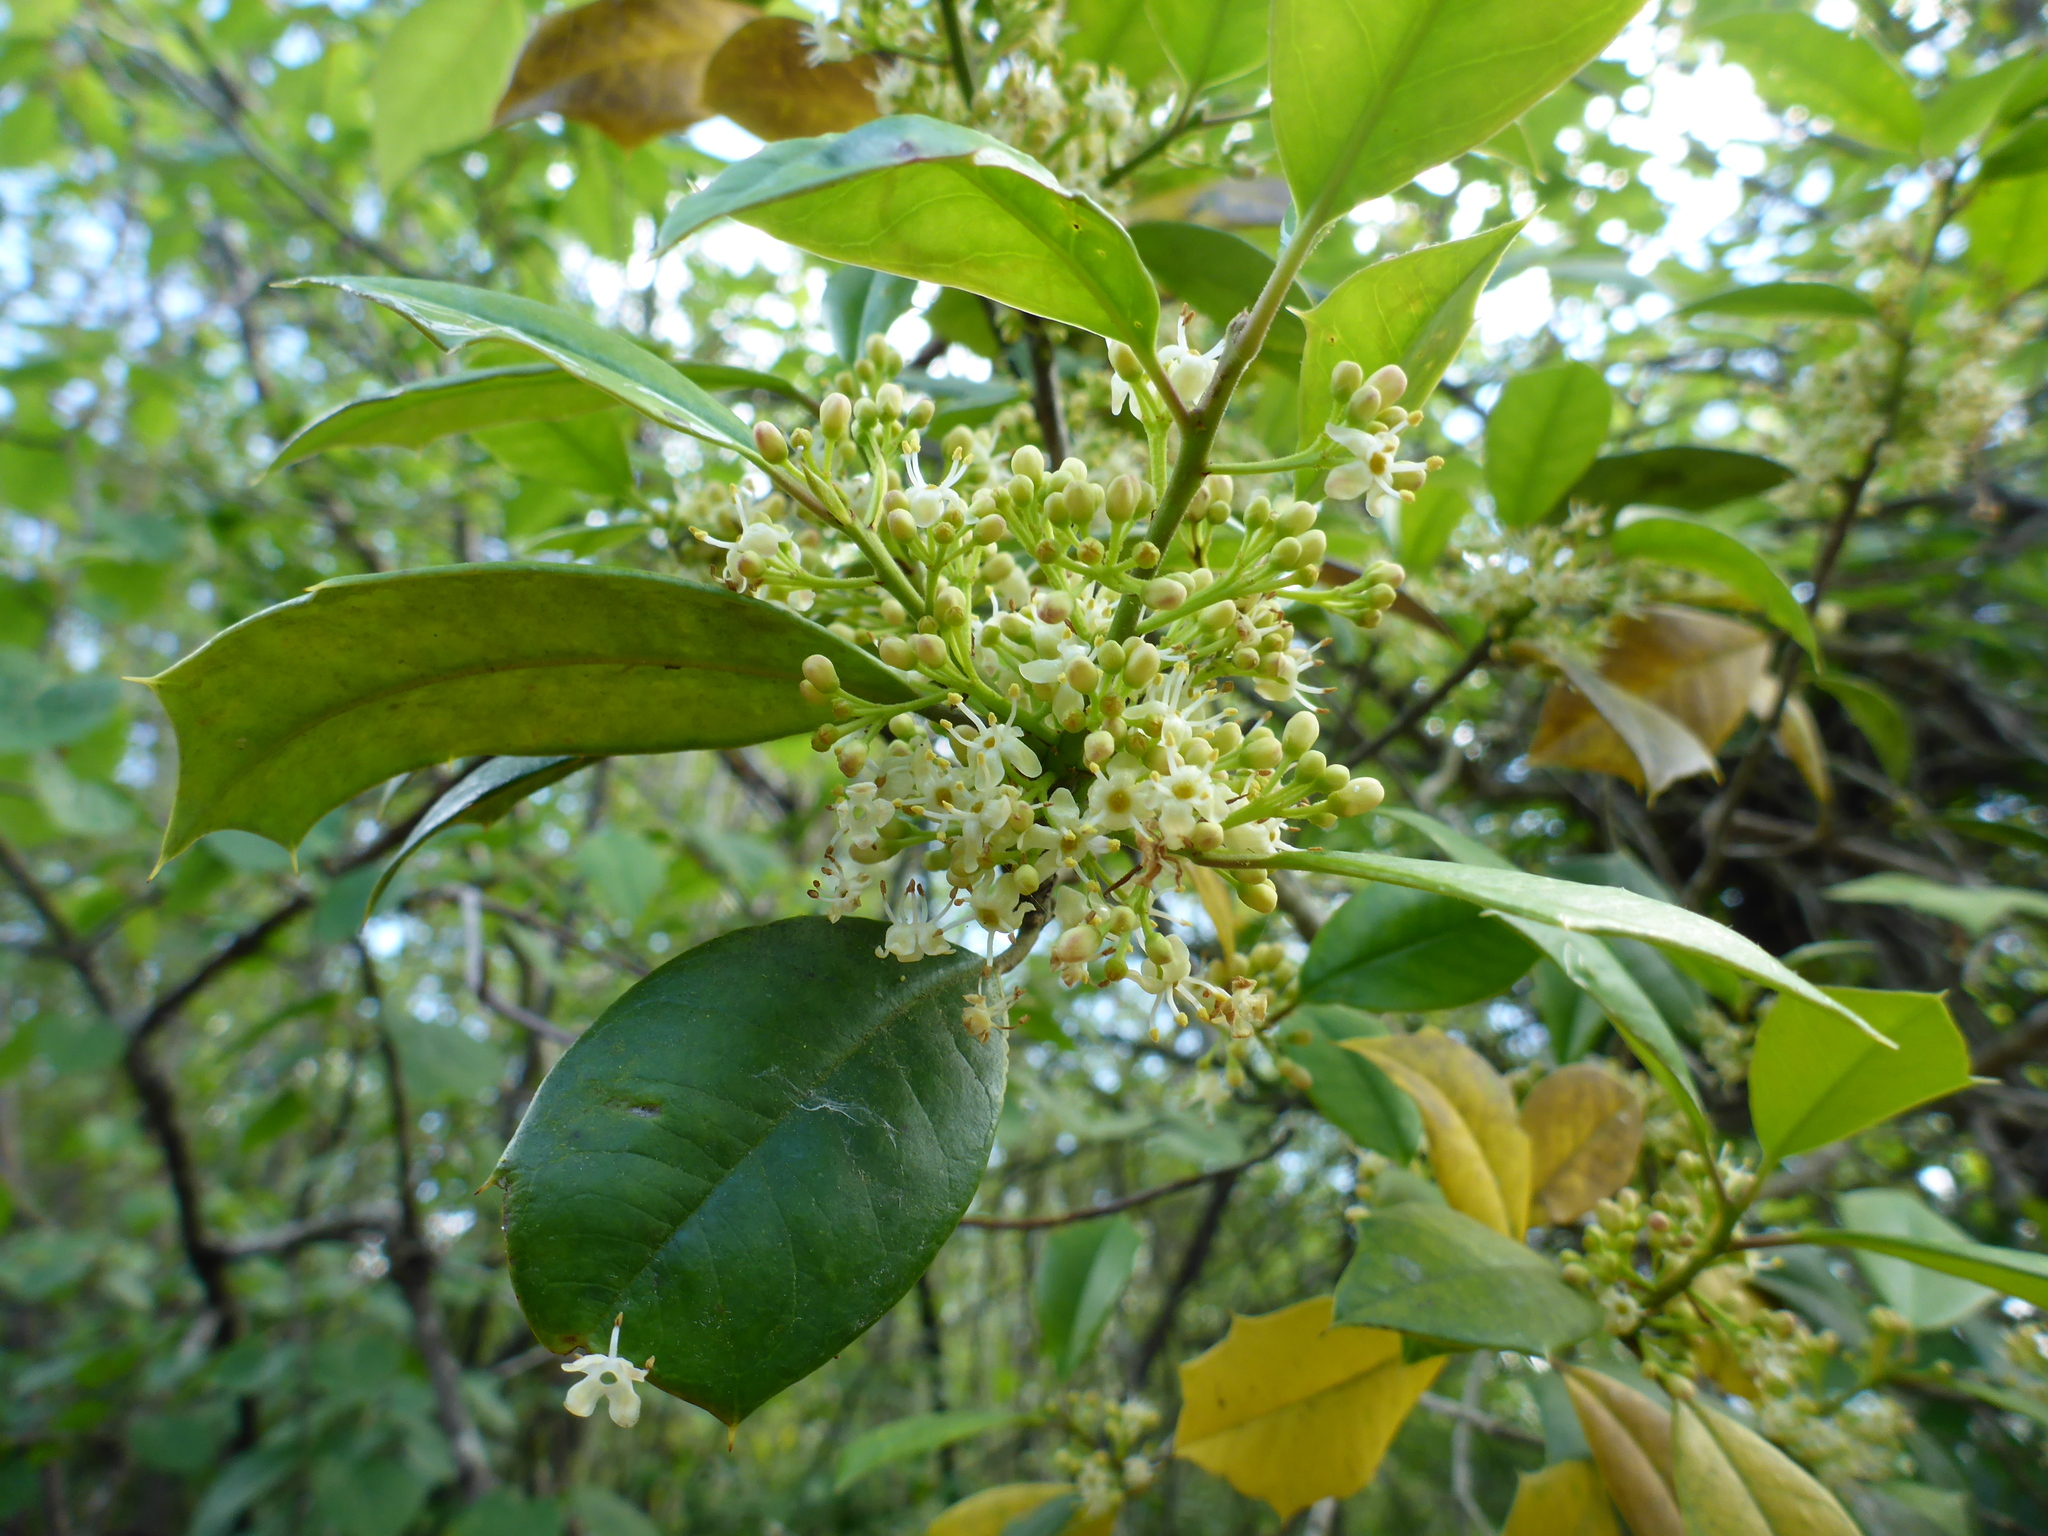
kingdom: Plantae
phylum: Tracheophyta
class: Magnoliopsida
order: Aquifoliales
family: Aquifoliaceae
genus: Ilex
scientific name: Ilex opaca
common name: American holly
